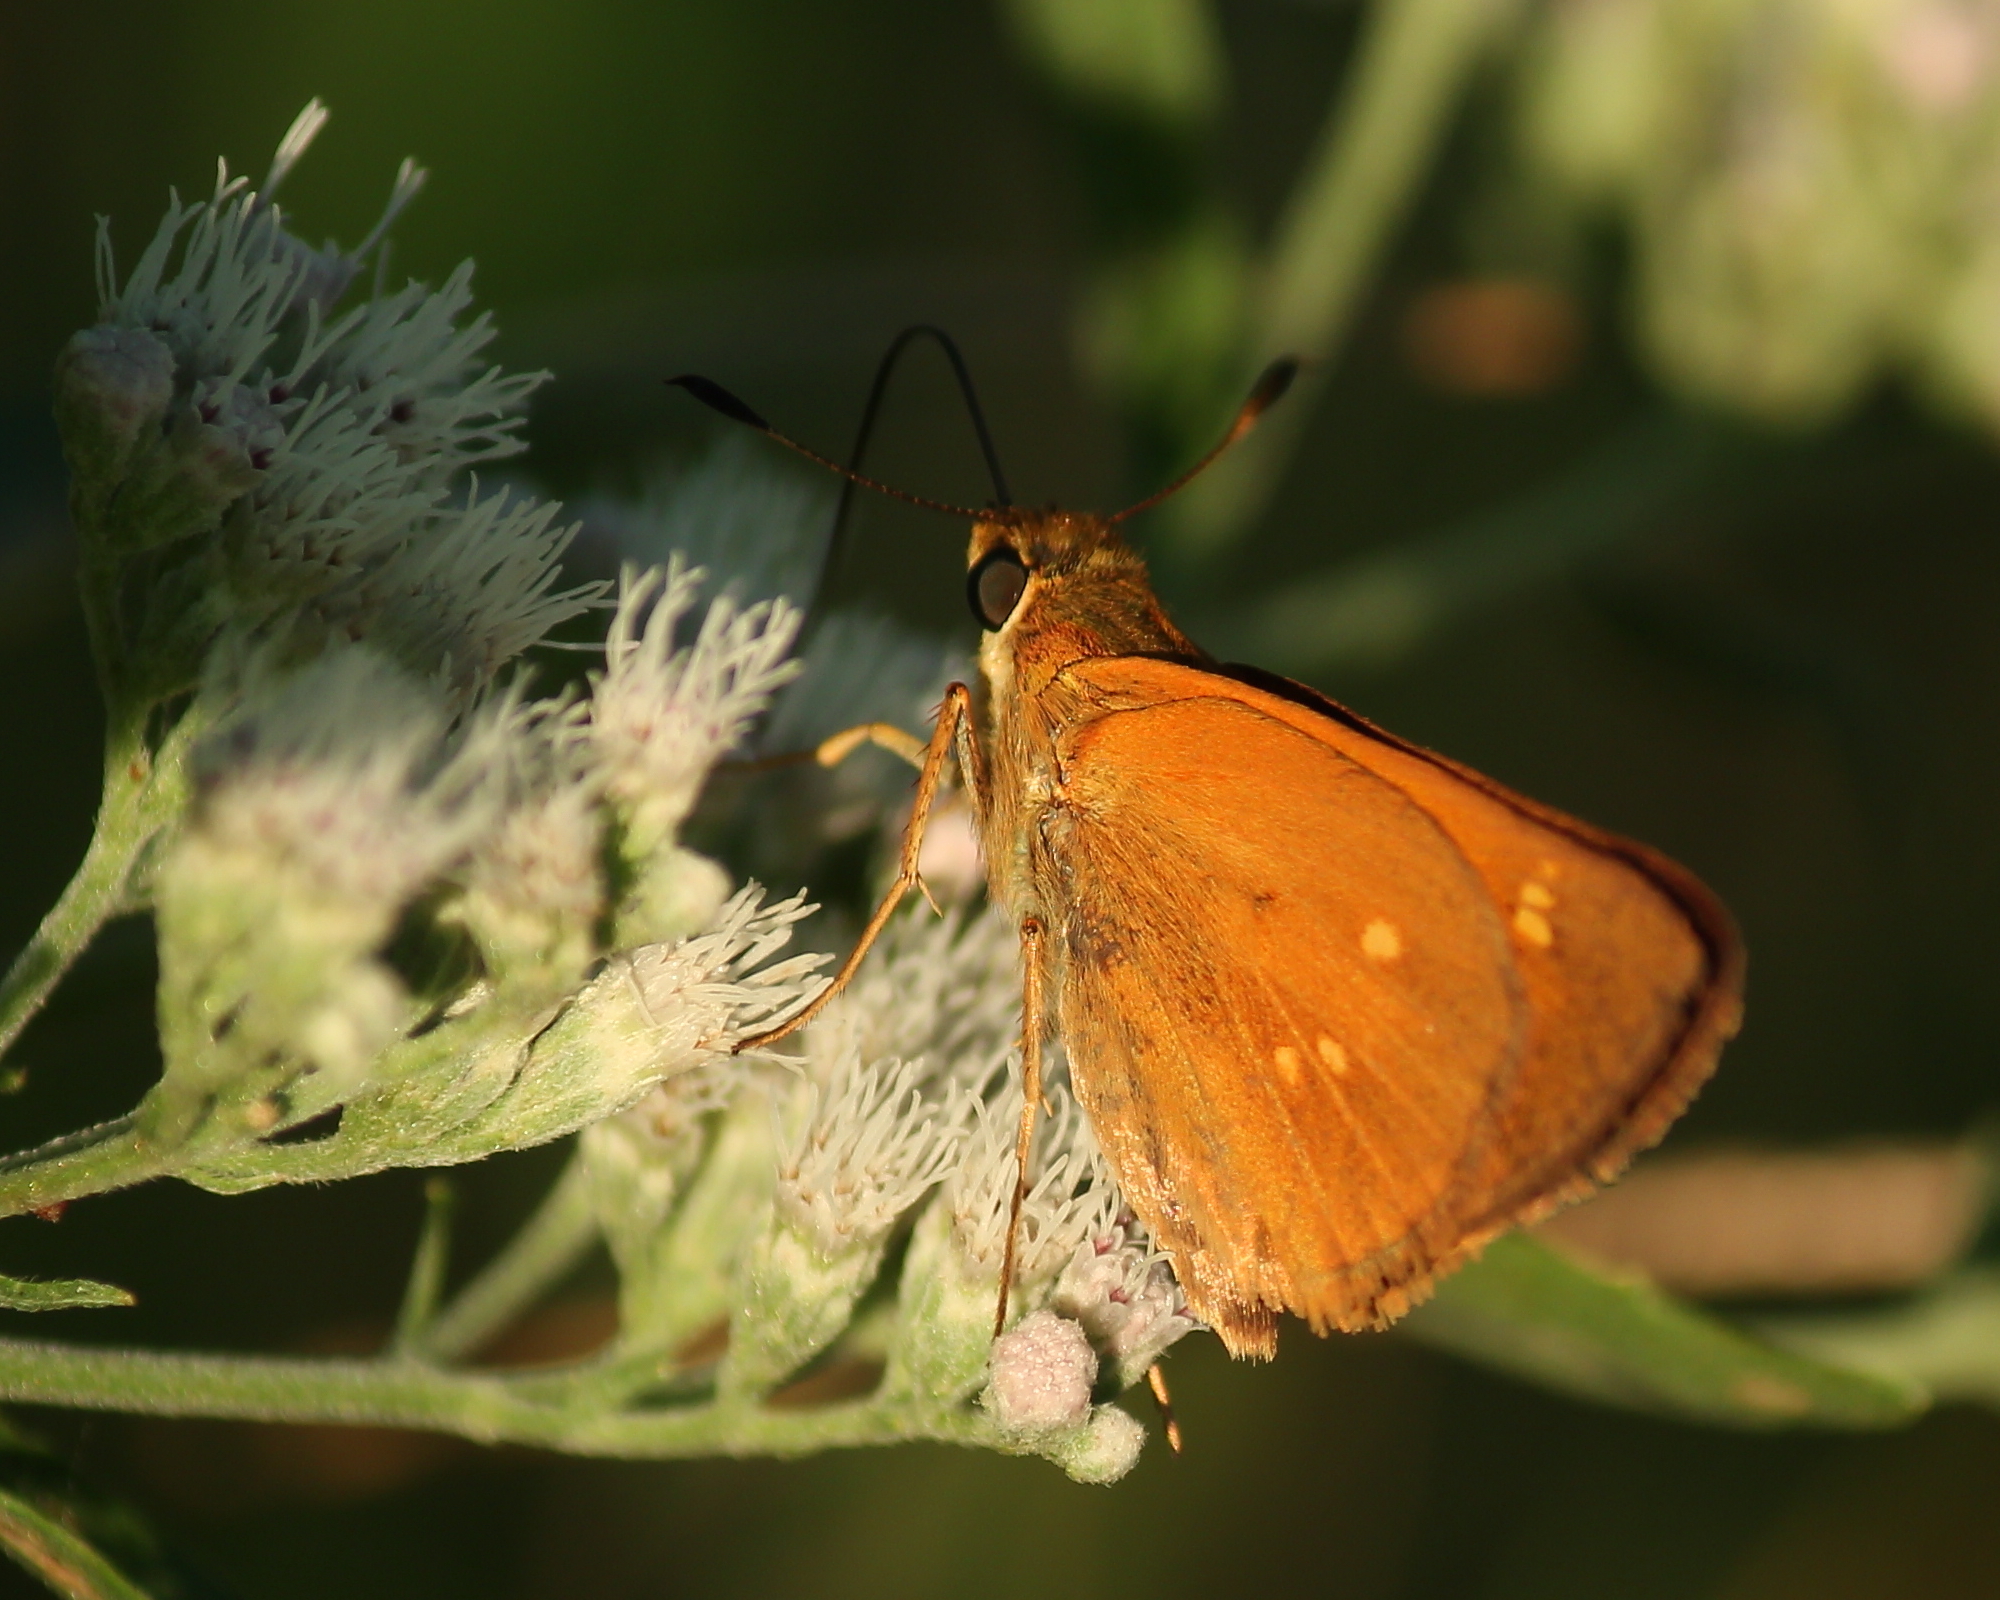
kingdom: Animalia
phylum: Arthropoda
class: Insecta
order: Lepidoptera
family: Hesperiidae
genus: Poanes
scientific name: Poanes yehl
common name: Yehl skipper
